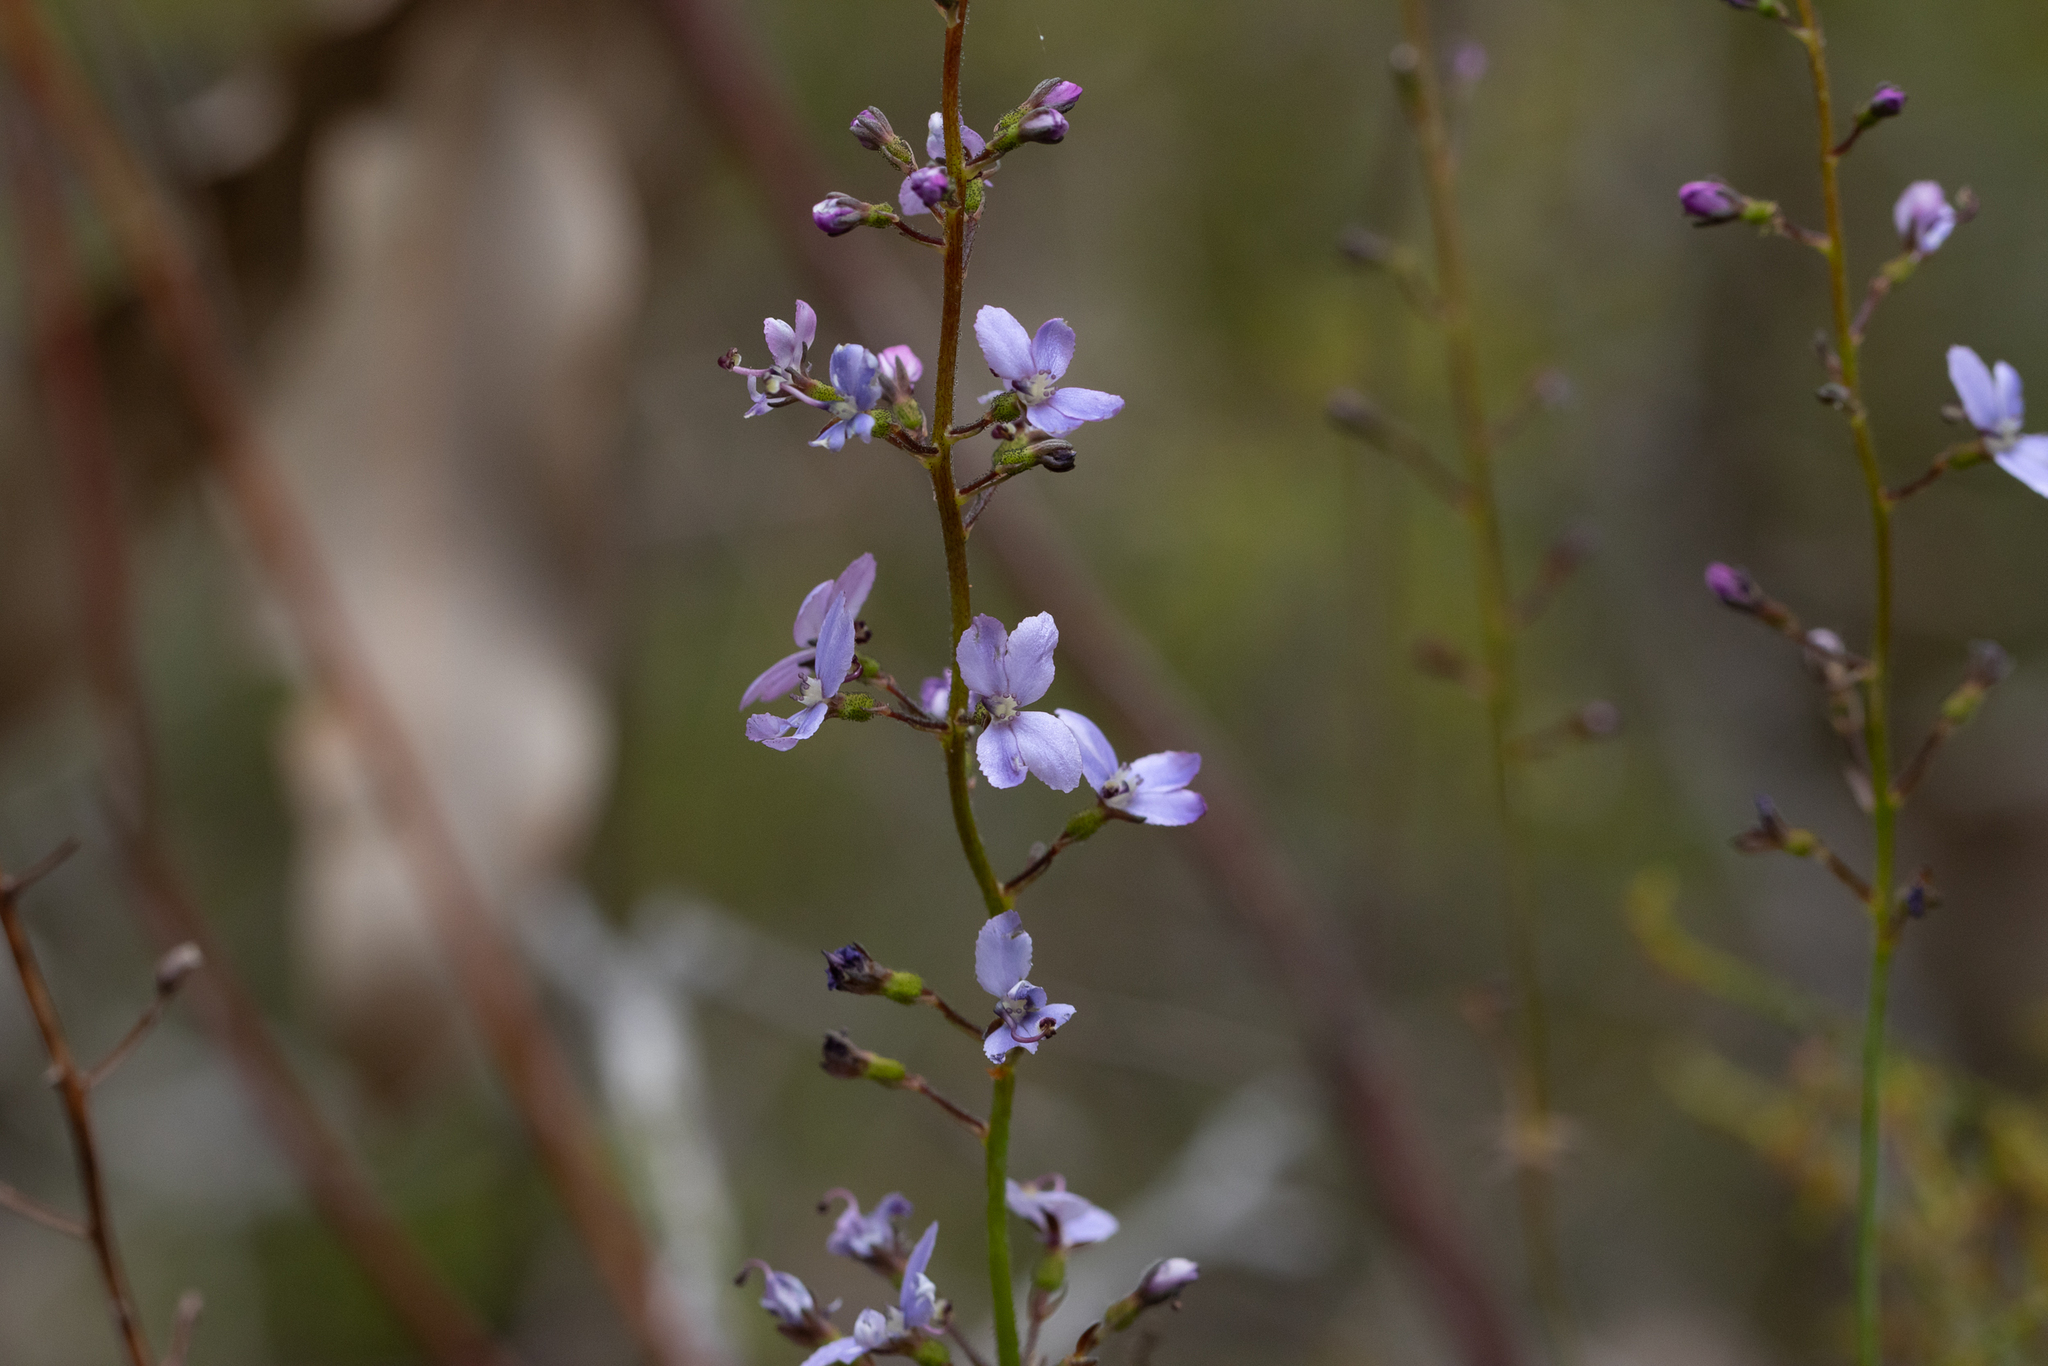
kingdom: Plantae
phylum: Tracheophyta
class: Magnoliopsida
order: Asterales
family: Stylidiaceae
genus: Stylidium
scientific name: Stylidium amoenum
